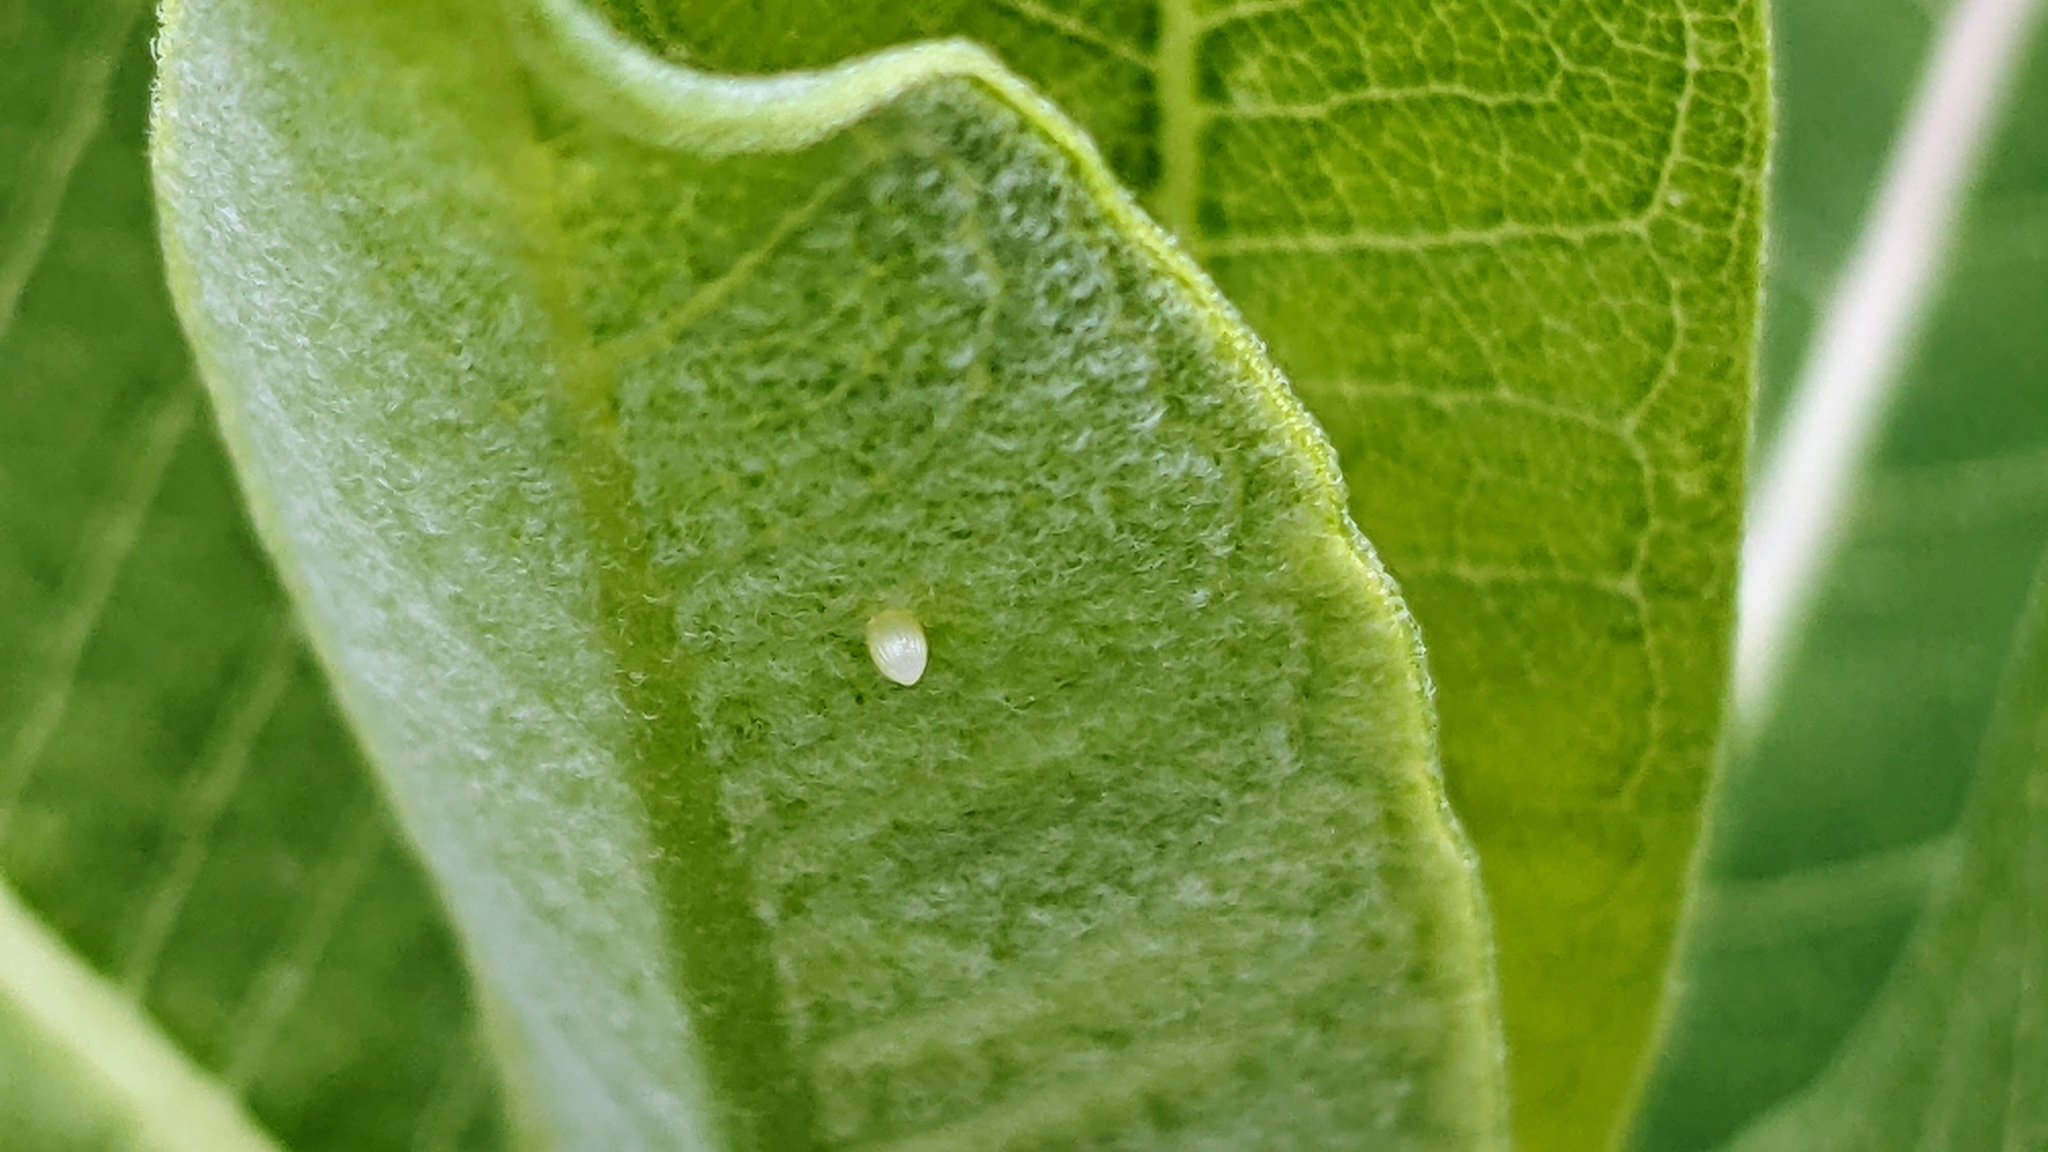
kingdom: Animalia
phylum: Arthropoda
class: Insecta
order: Lepidoptera
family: Nymphalidae
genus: Danaus
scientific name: Danaus plexippus
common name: Monarch
